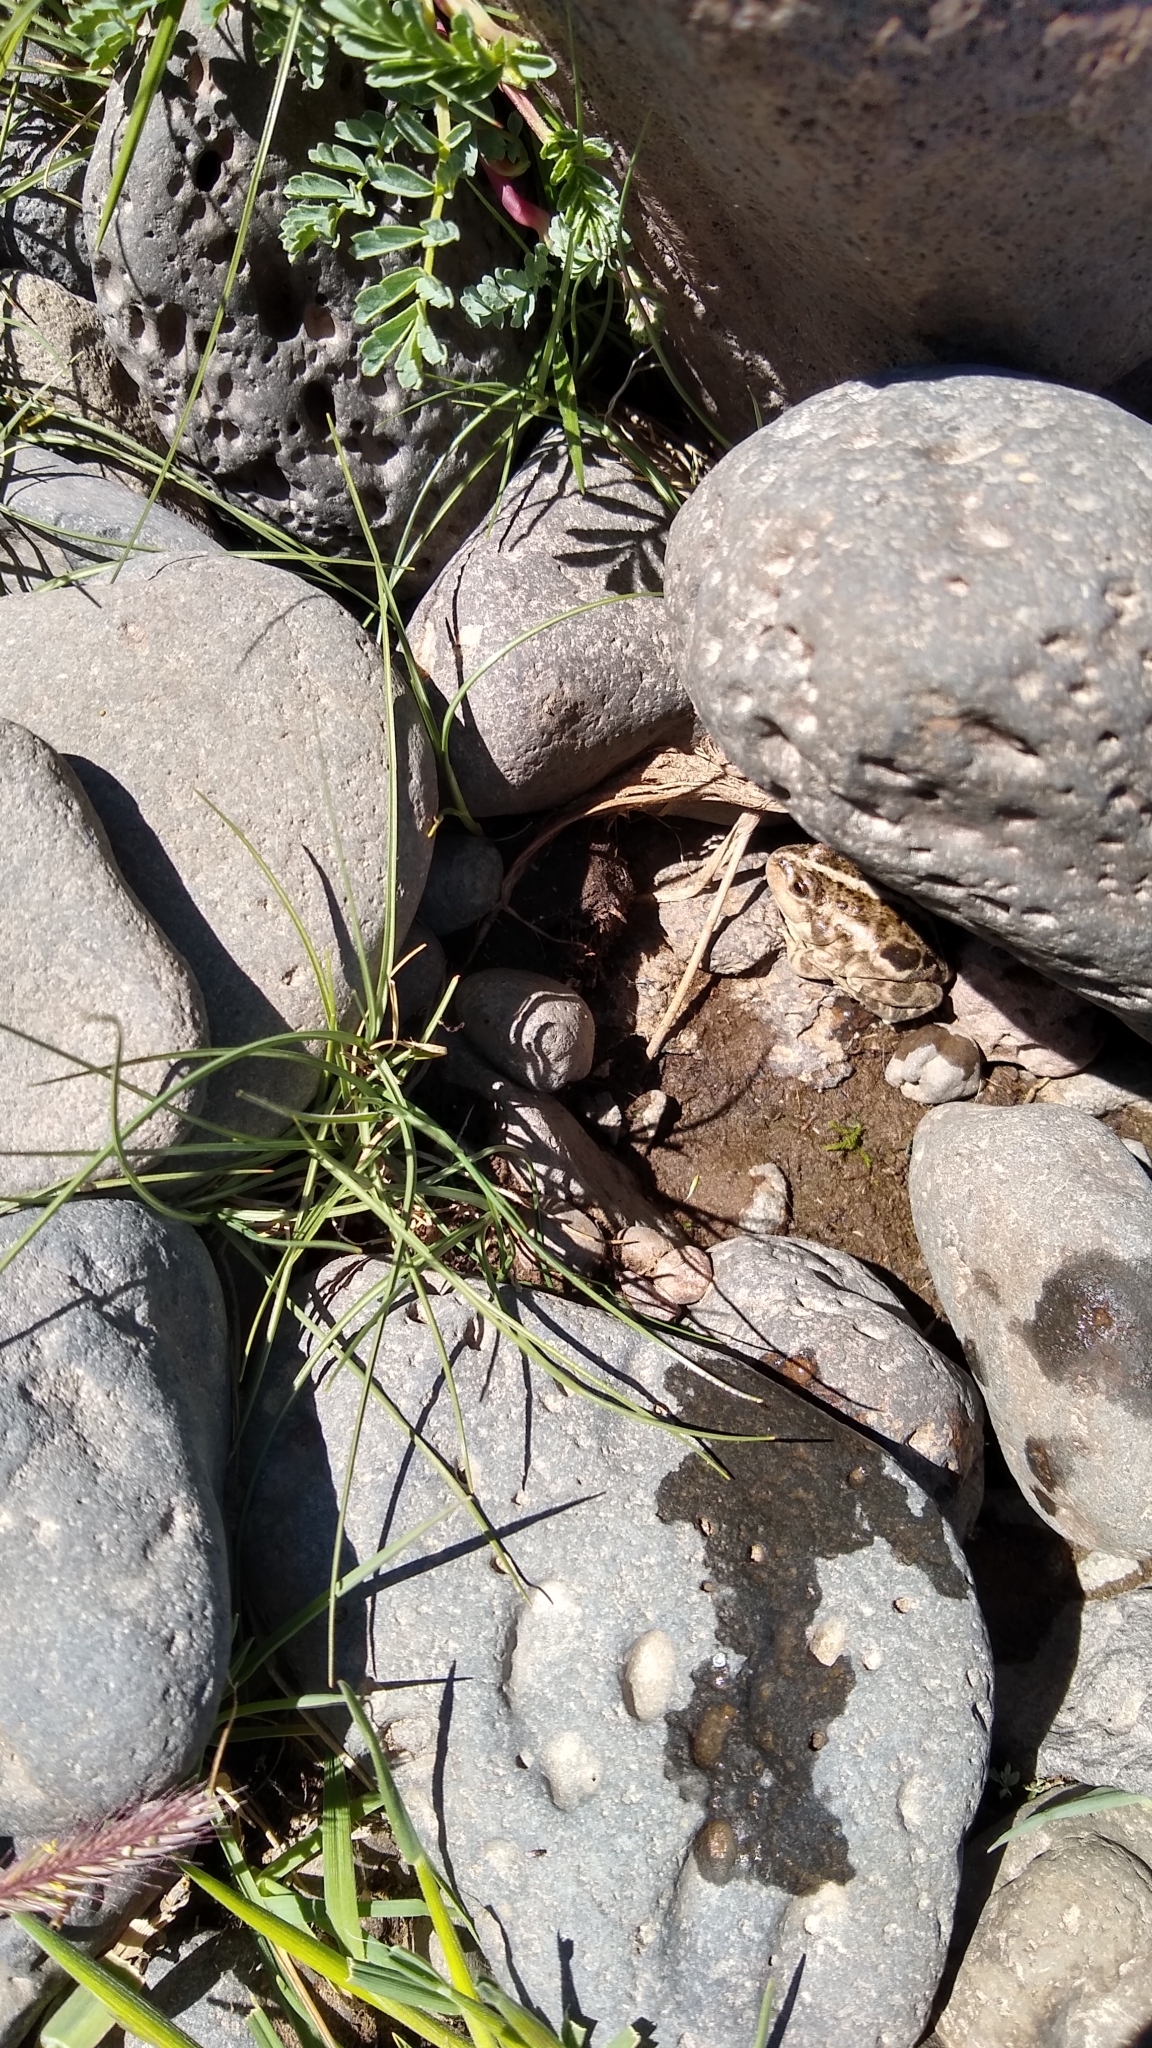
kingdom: Animalia
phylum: Chordata
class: Amphibia
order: Anura
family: Leptodactylidae
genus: Pleurodema
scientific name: Pleurodema bufoninum
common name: Large four-eyed frog
